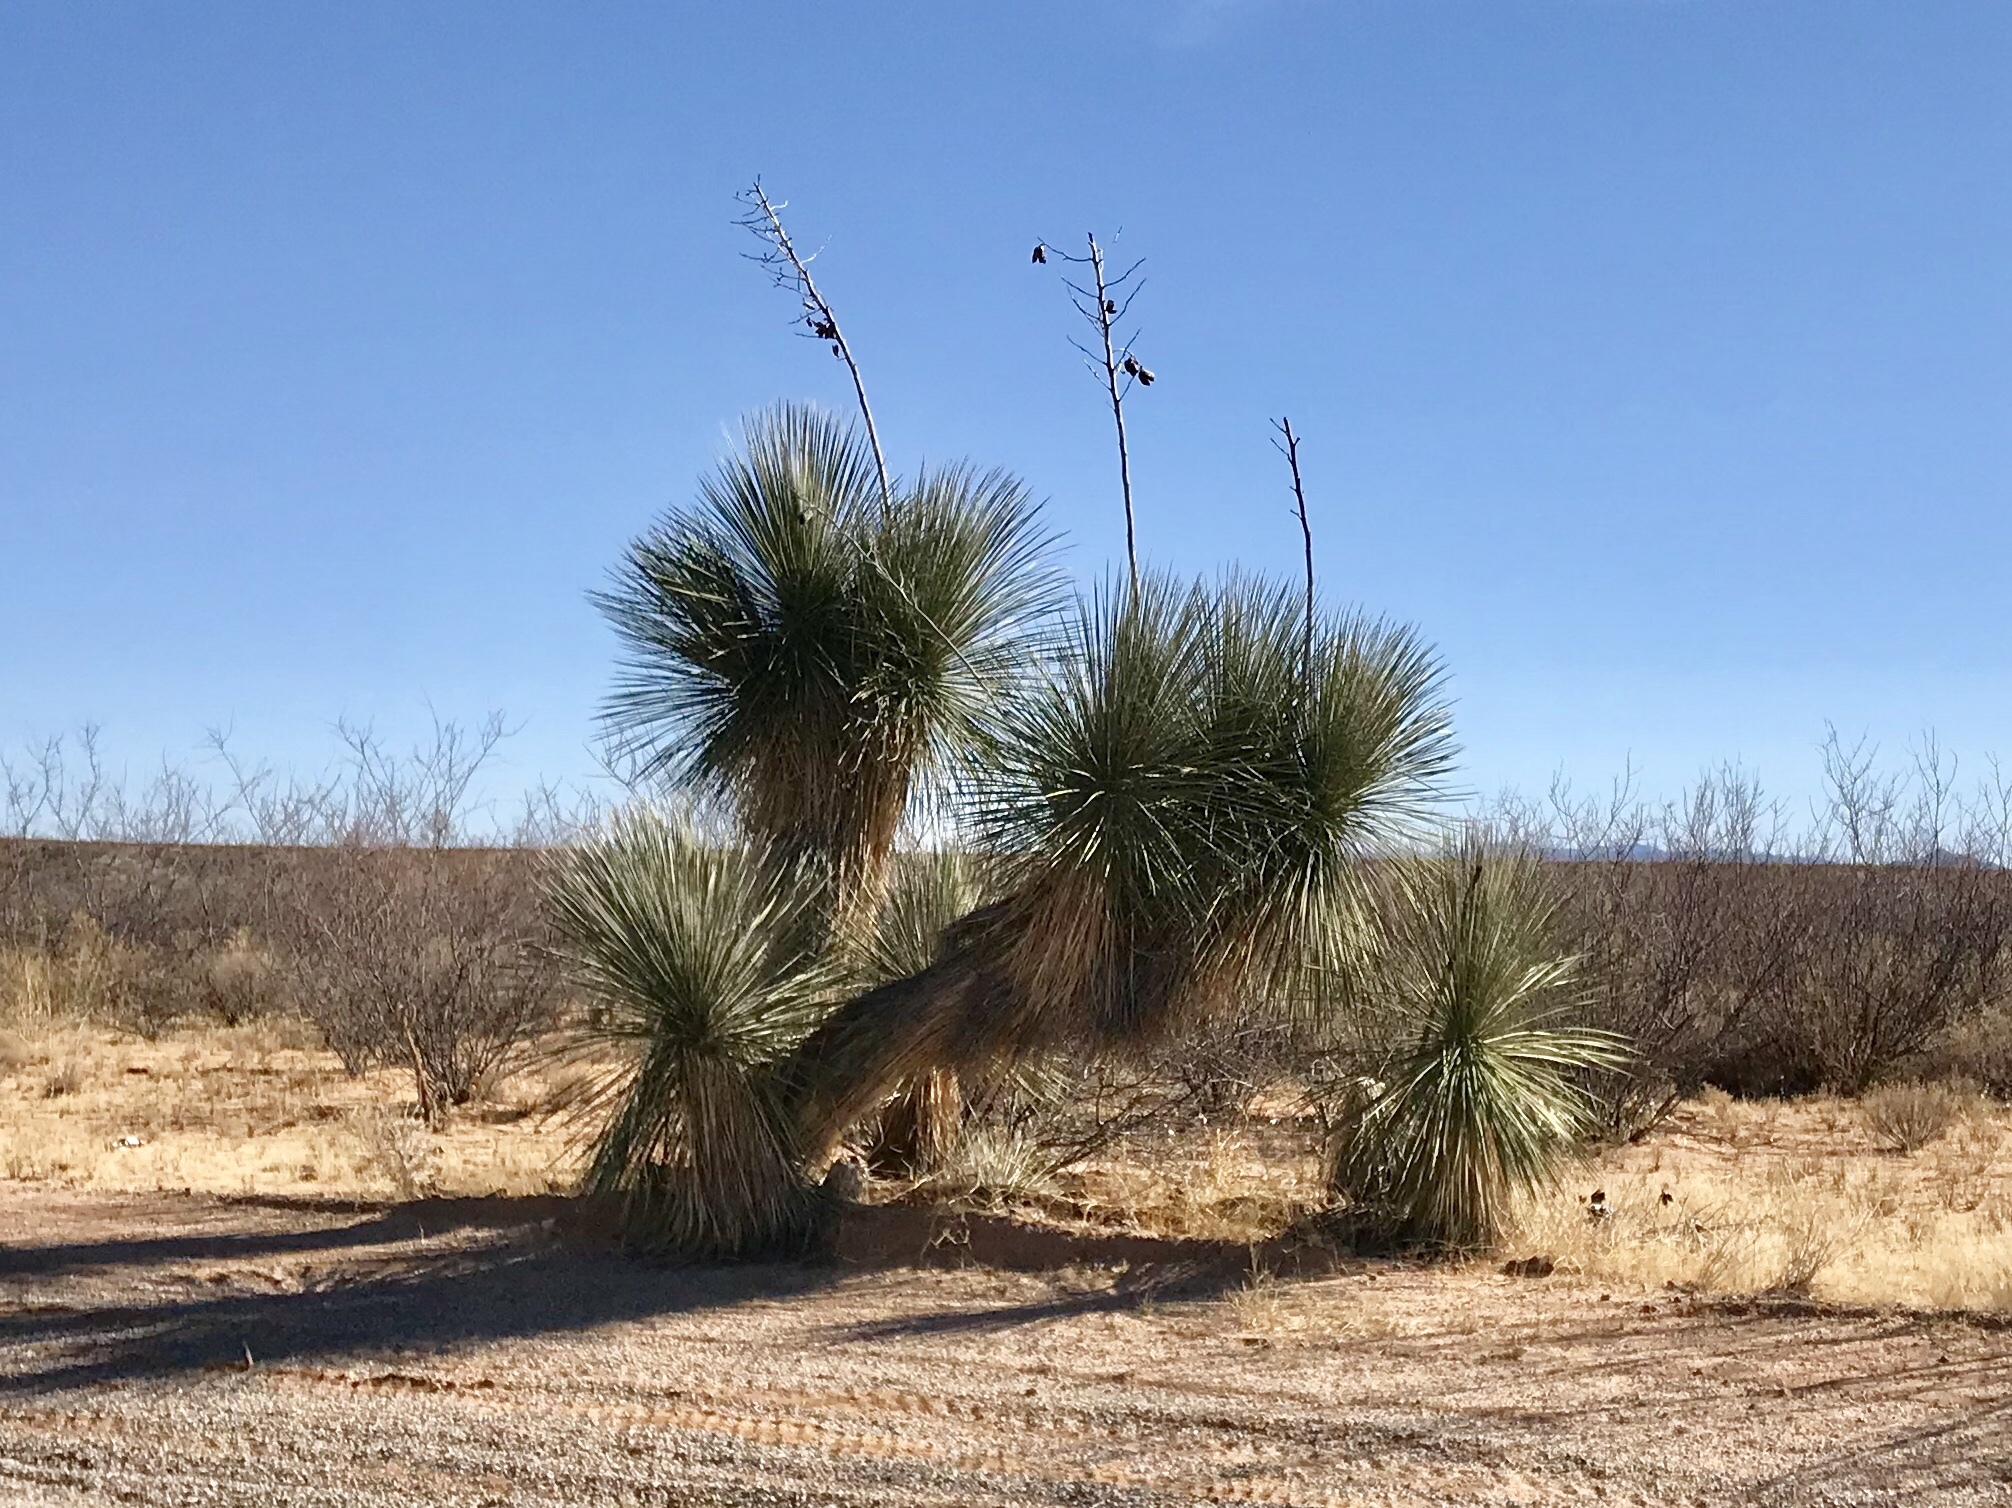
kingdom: Plantae
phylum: Tracheophyta
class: Liliopsida
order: Asparagales
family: Asparagaceae
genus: Yucca
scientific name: Yucca elata
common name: Palmella
